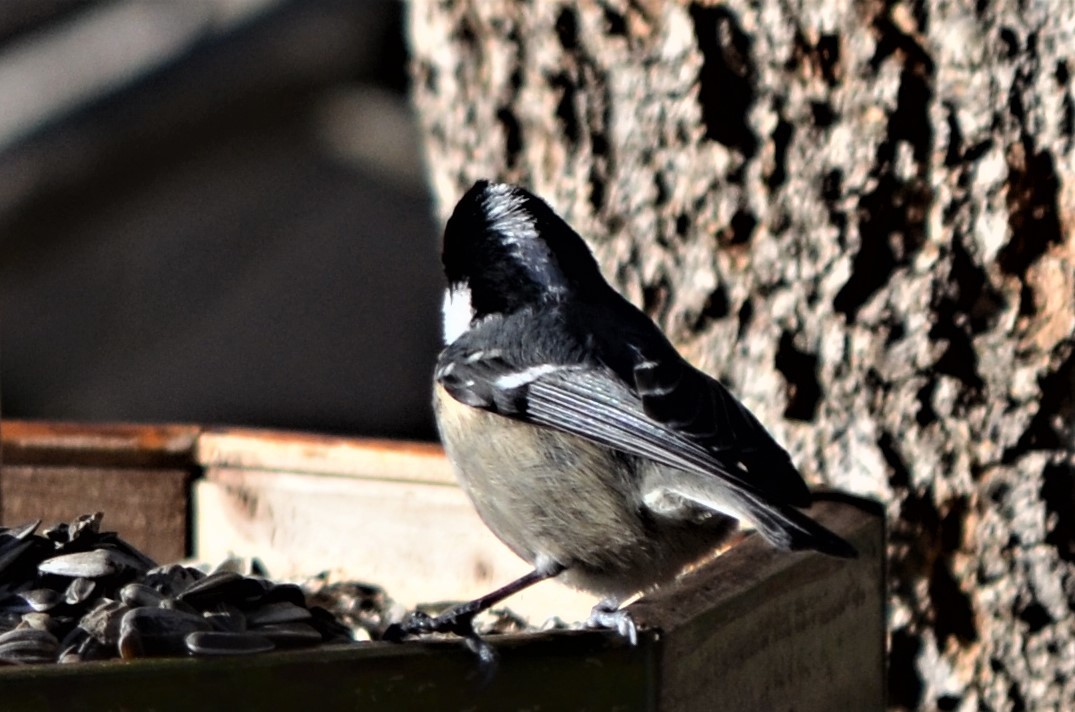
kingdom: Animalia
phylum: Chordata
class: Aves
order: Passeriformes
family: Paridae
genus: Periparus
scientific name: Periparus ater
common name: Coal tit
